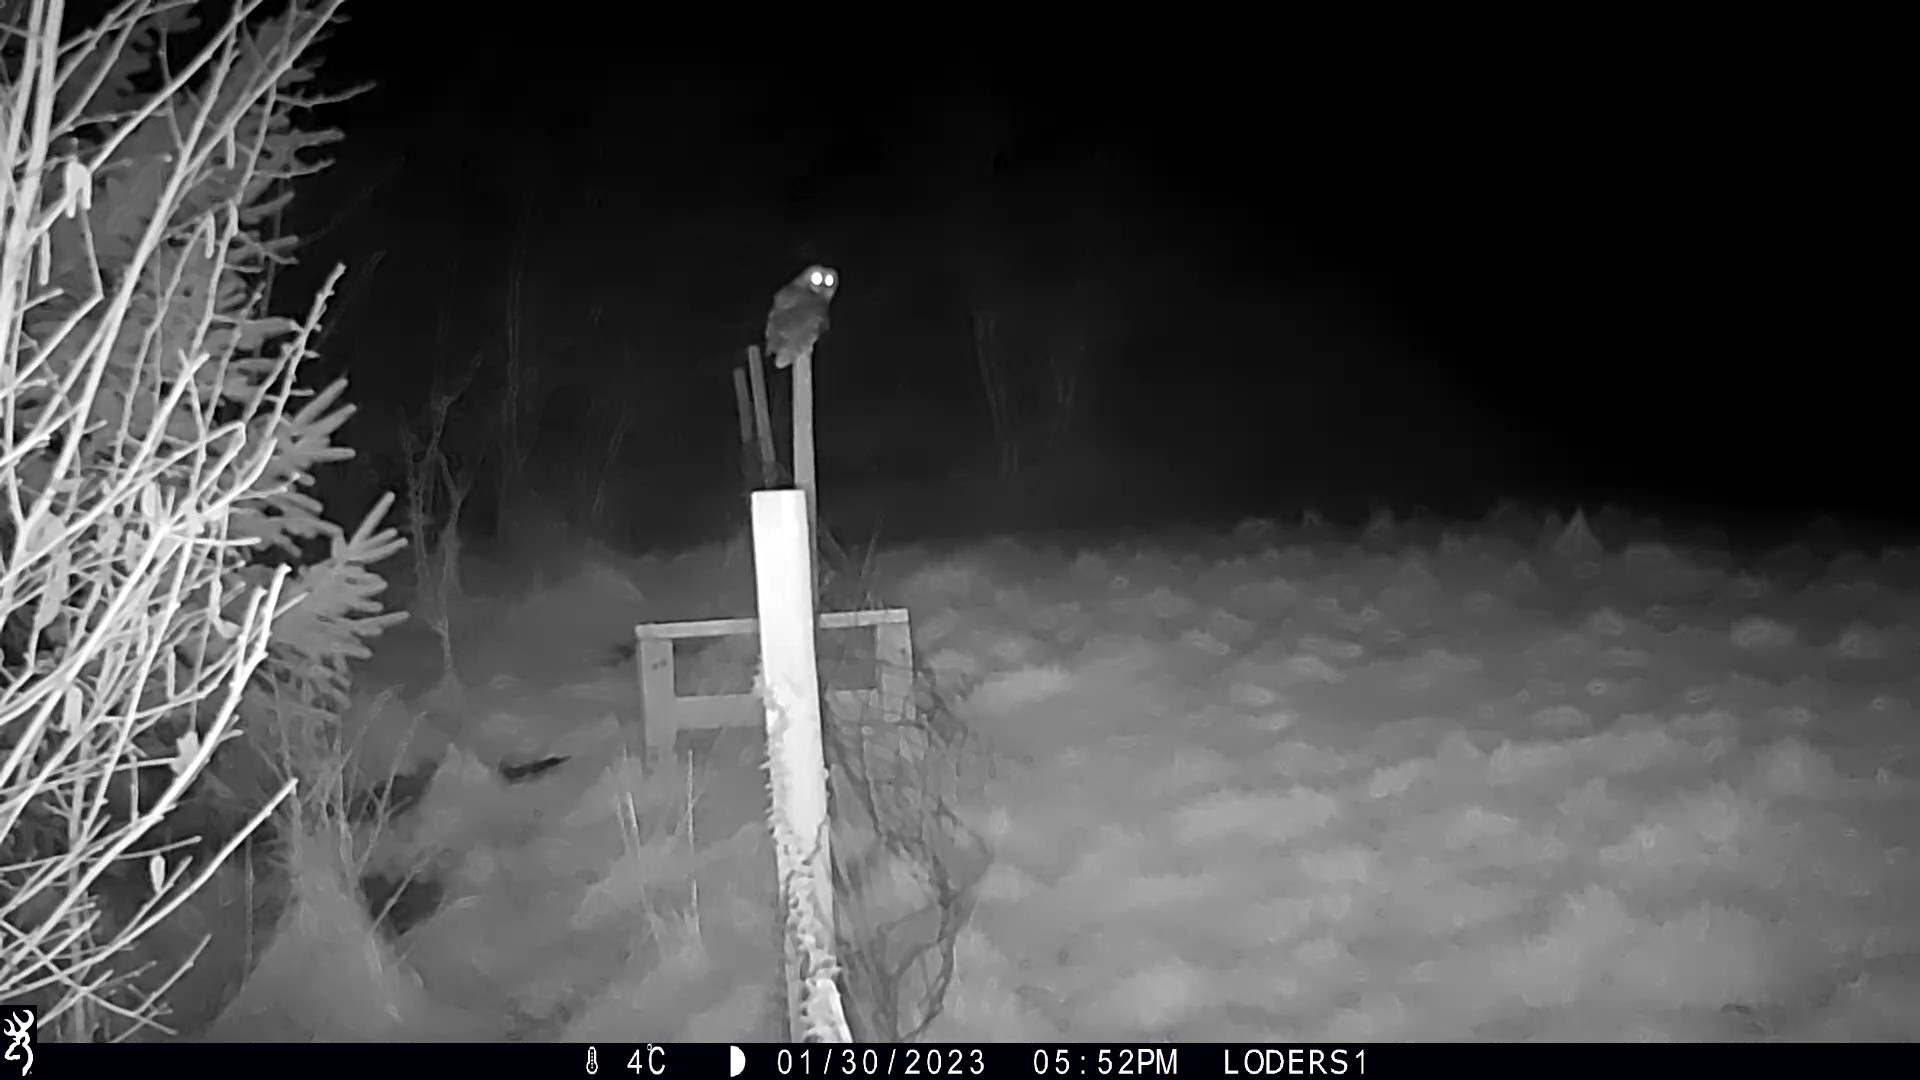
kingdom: Animalia
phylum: Chordata
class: Aves
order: Strigiformes
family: Strigidae
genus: Strix
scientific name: Strix aluco
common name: Tawny owl
